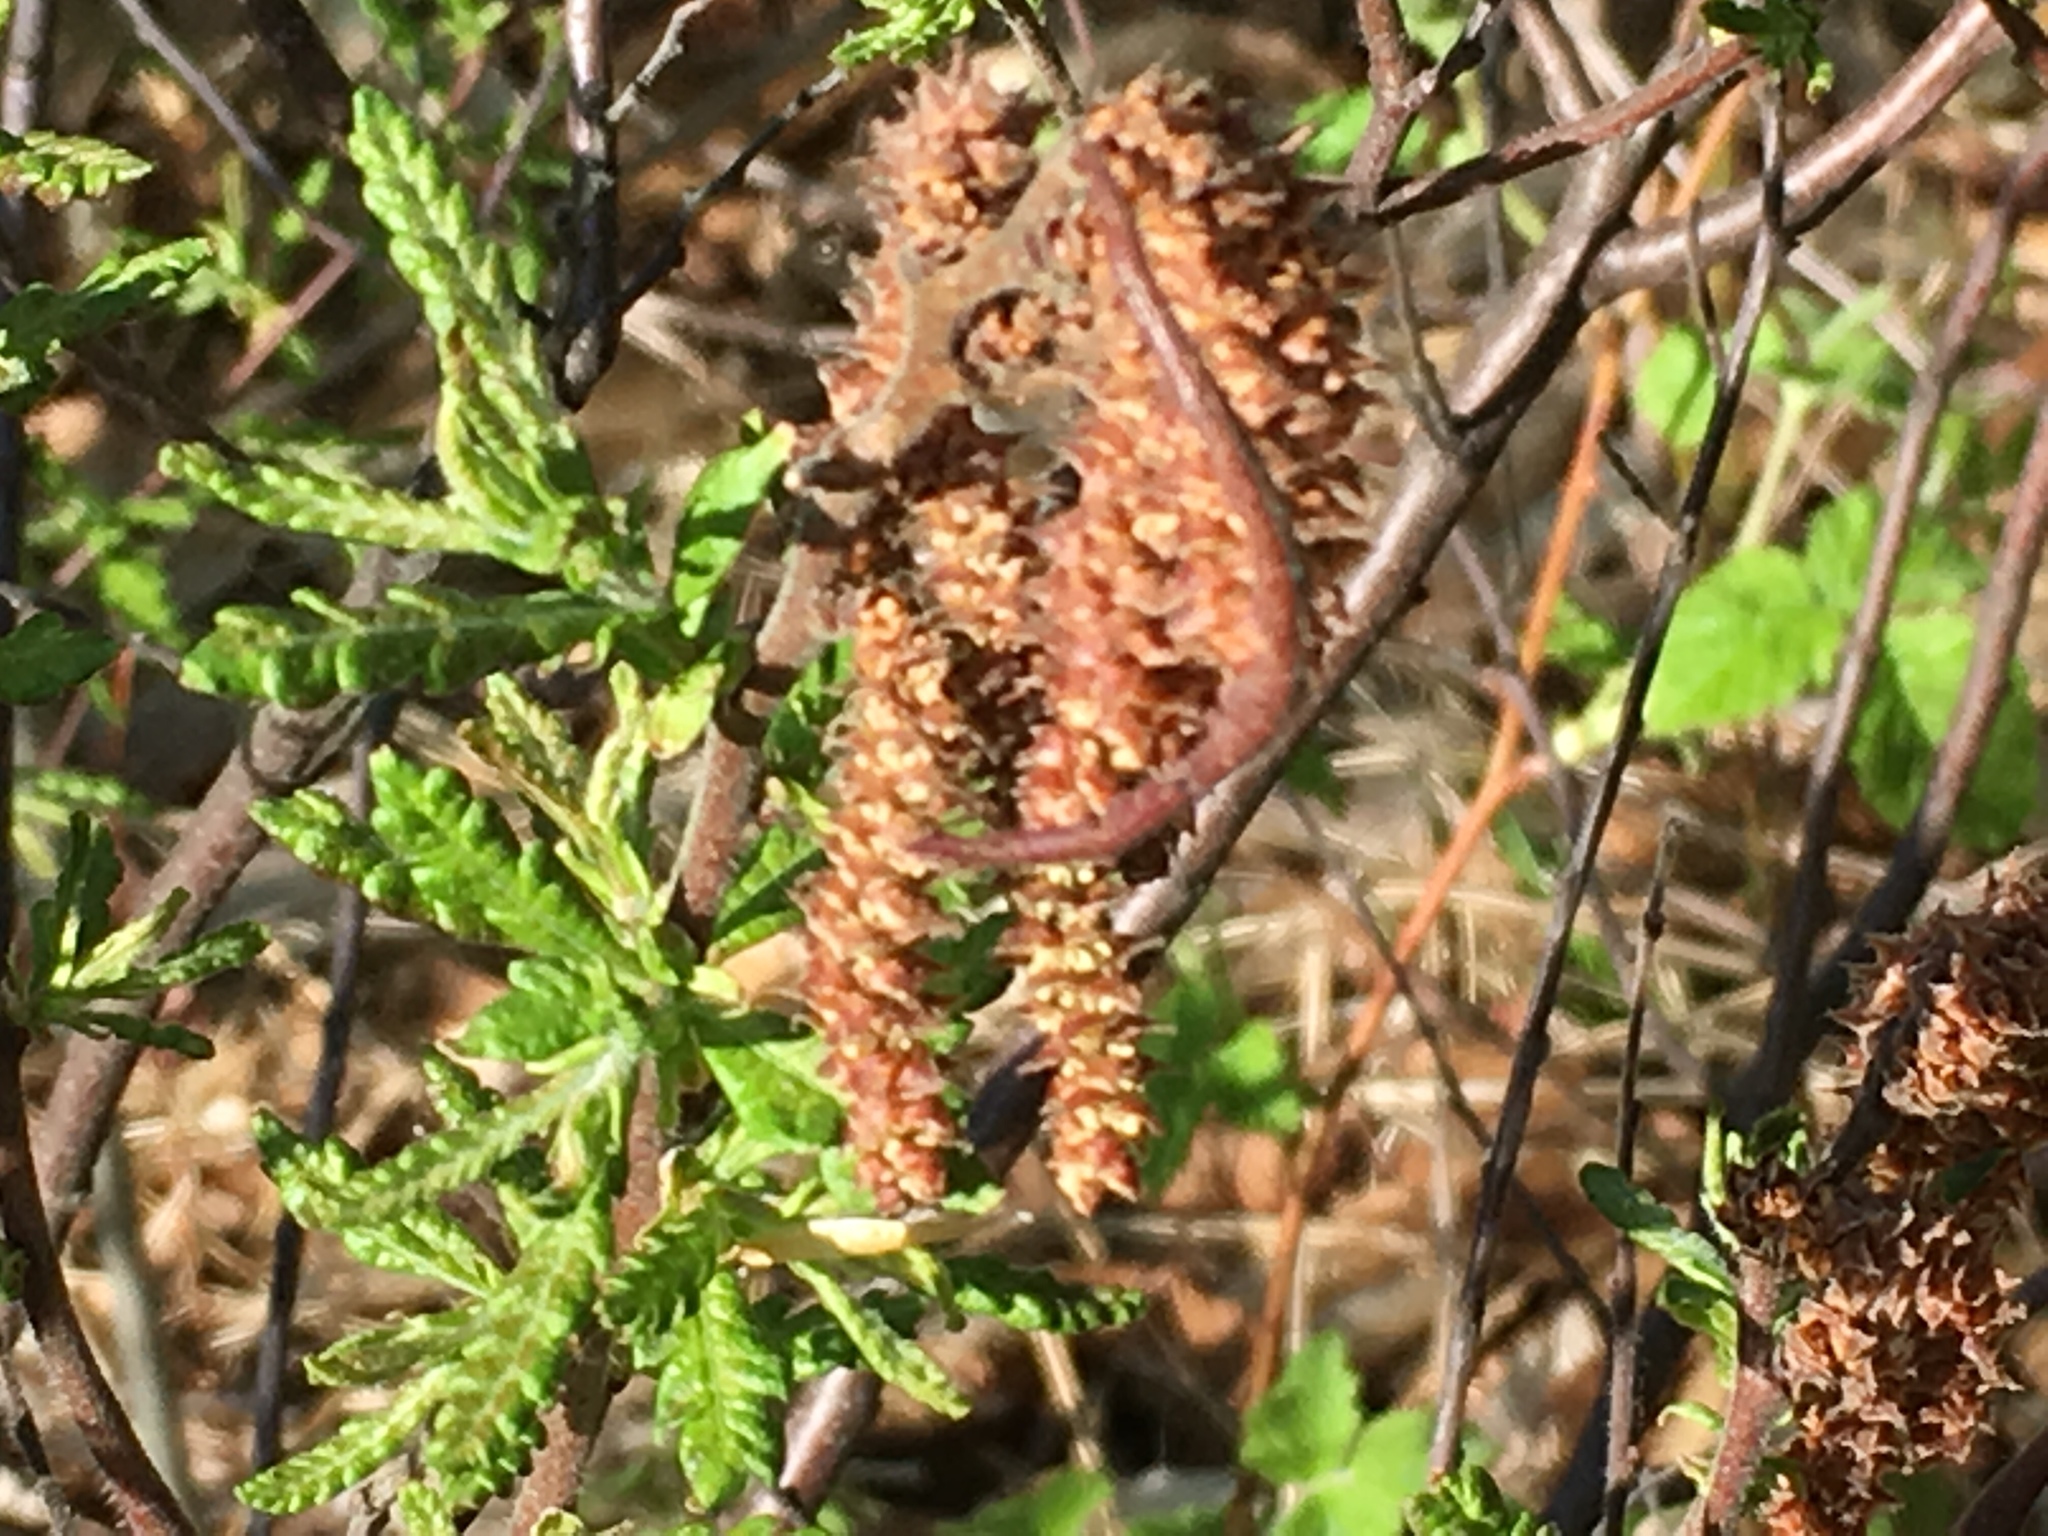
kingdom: Plantae
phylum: Tracheophyta
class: Magnoliopsida
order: Fagales
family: Myricaceae
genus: Comptonia
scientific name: Comptonia peregrina
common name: Sweet-fern
